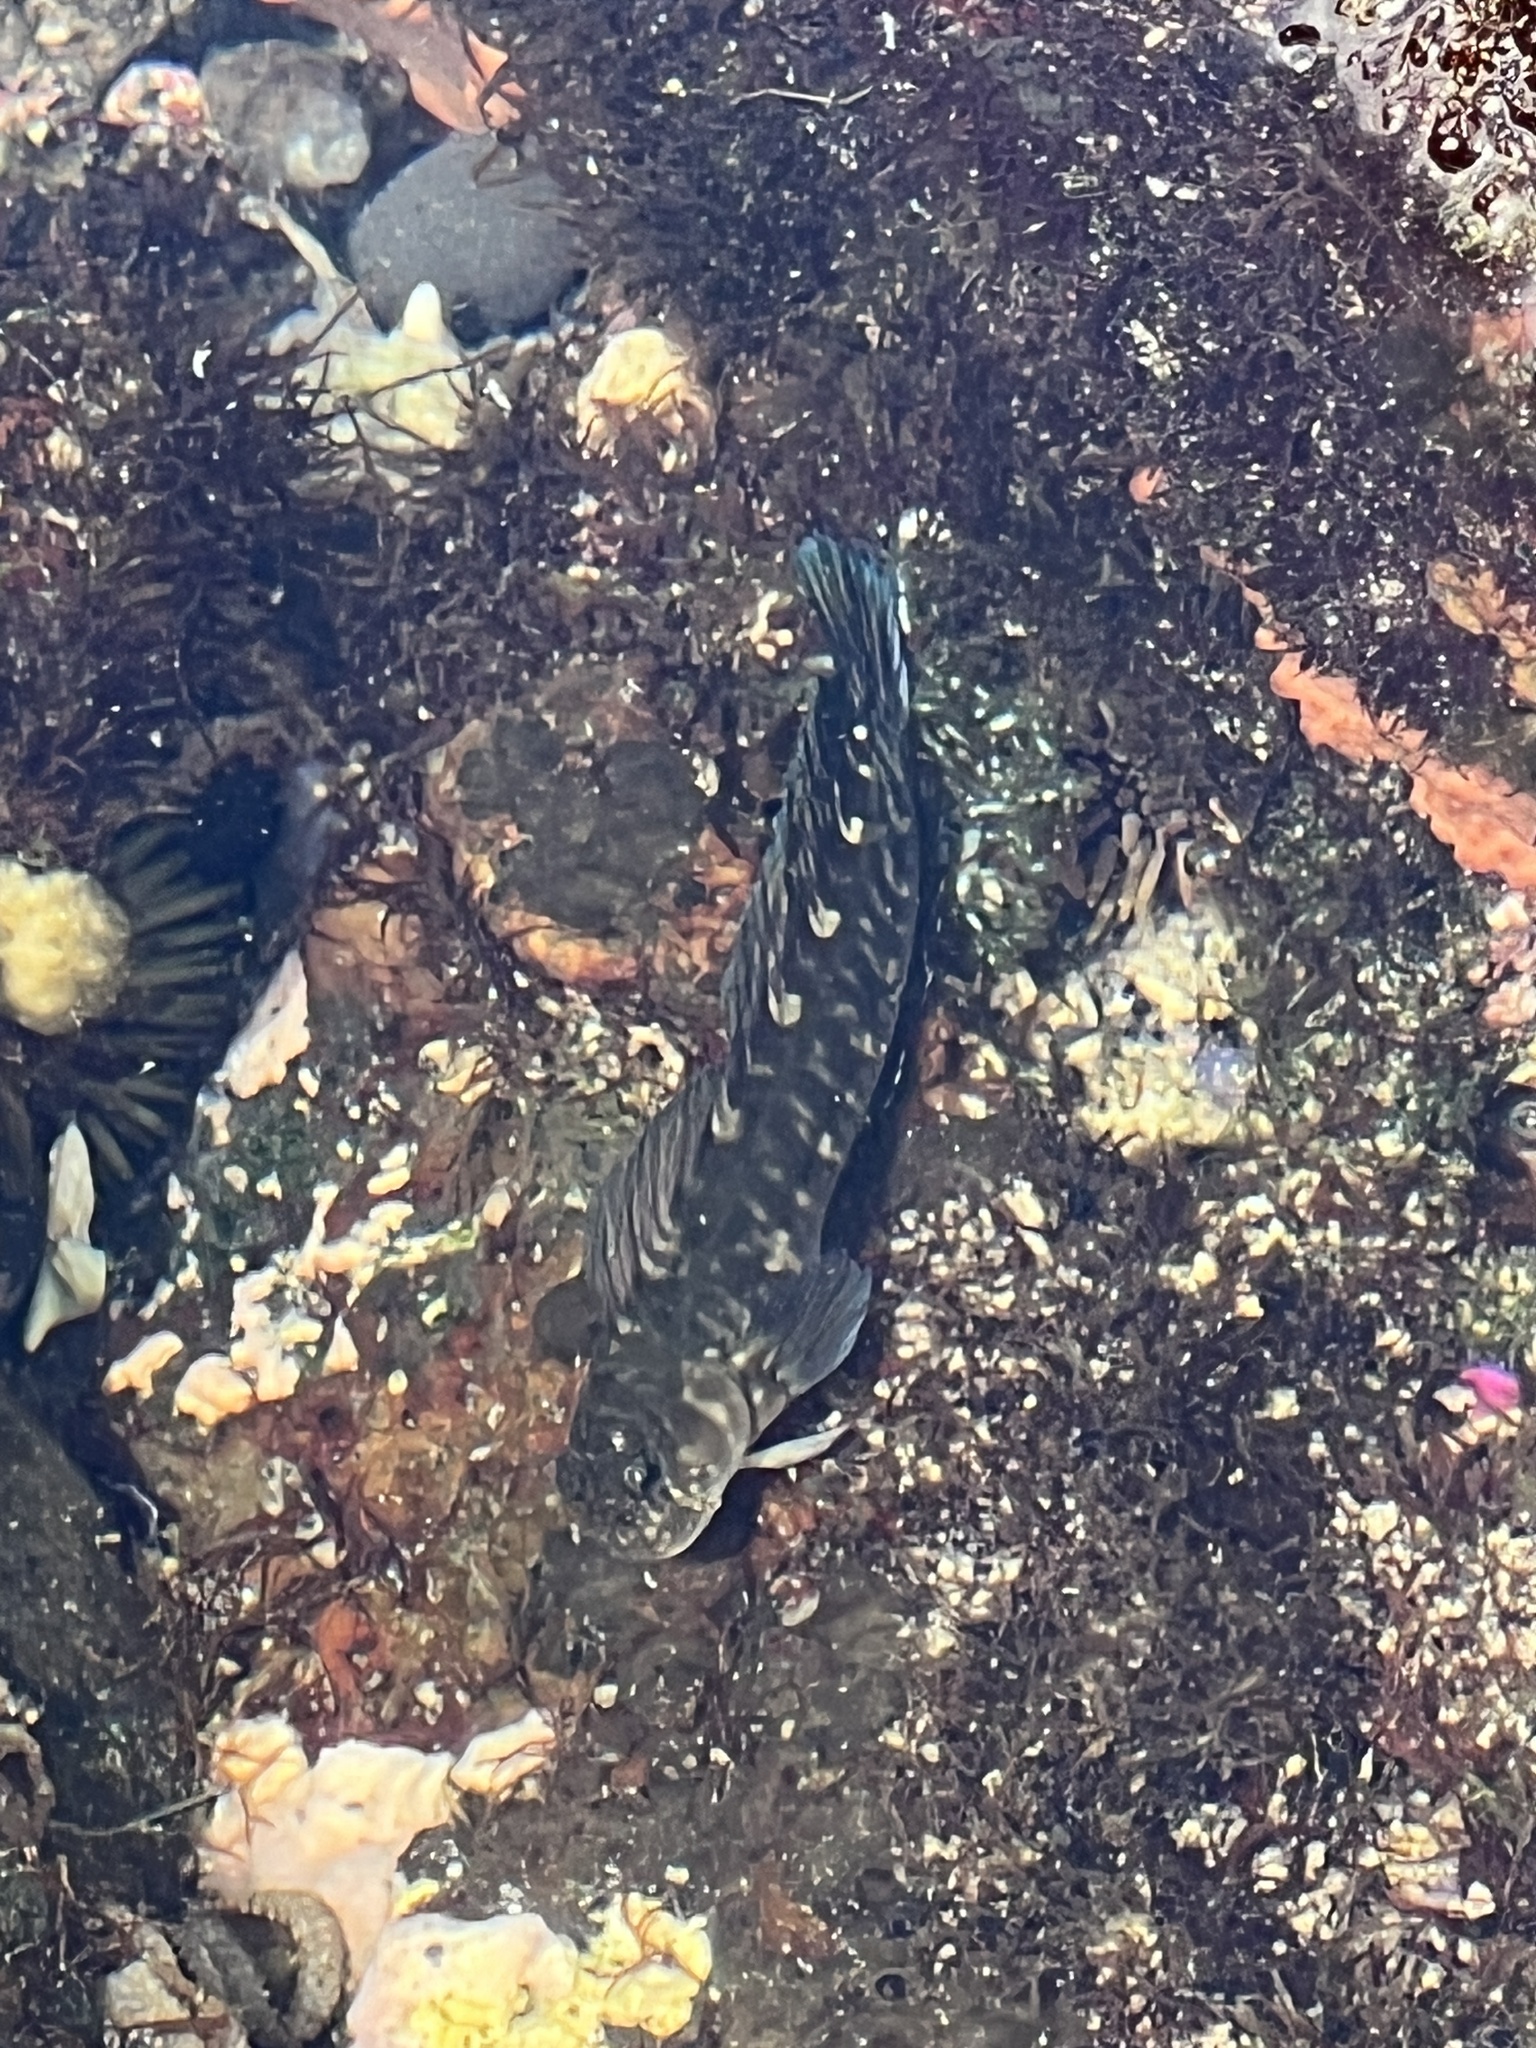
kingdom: Animalia
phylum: Chordata
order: Perciformes
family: Blenniidae
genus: Istiblennius
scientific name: Istiblennius zebra
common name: Zebra blenny
